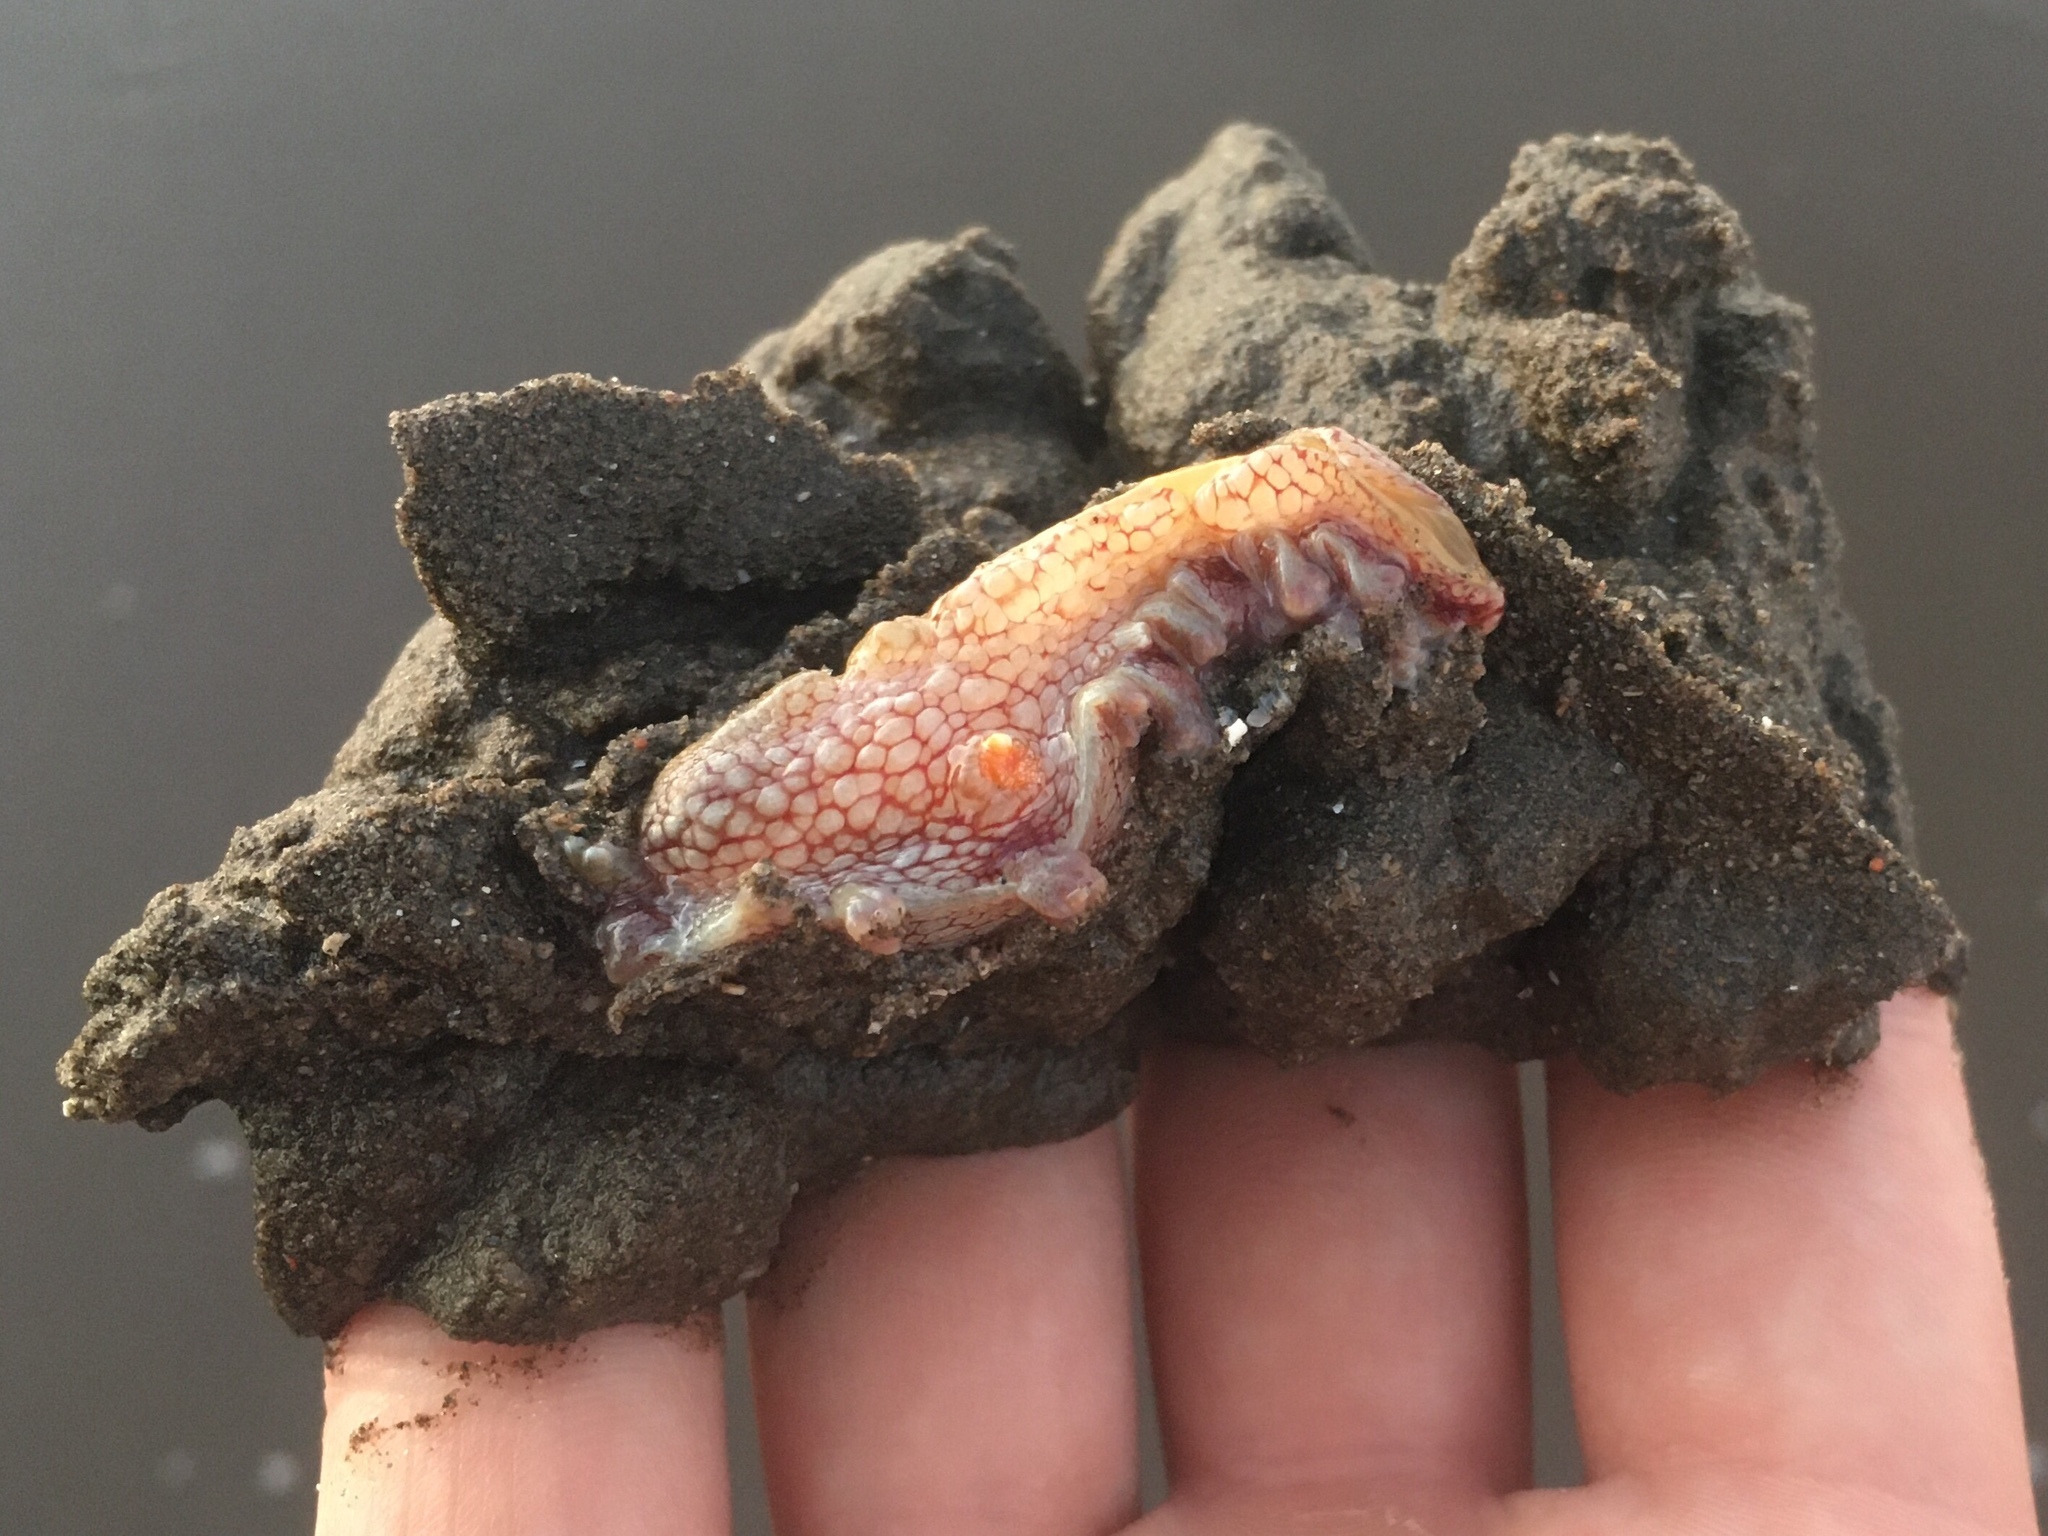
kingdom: Animalia
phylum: Mollusca
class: Gastropoda
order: Nudibranchia
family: Tritoniidae
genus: Marionia
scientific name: Marionia cucullata
